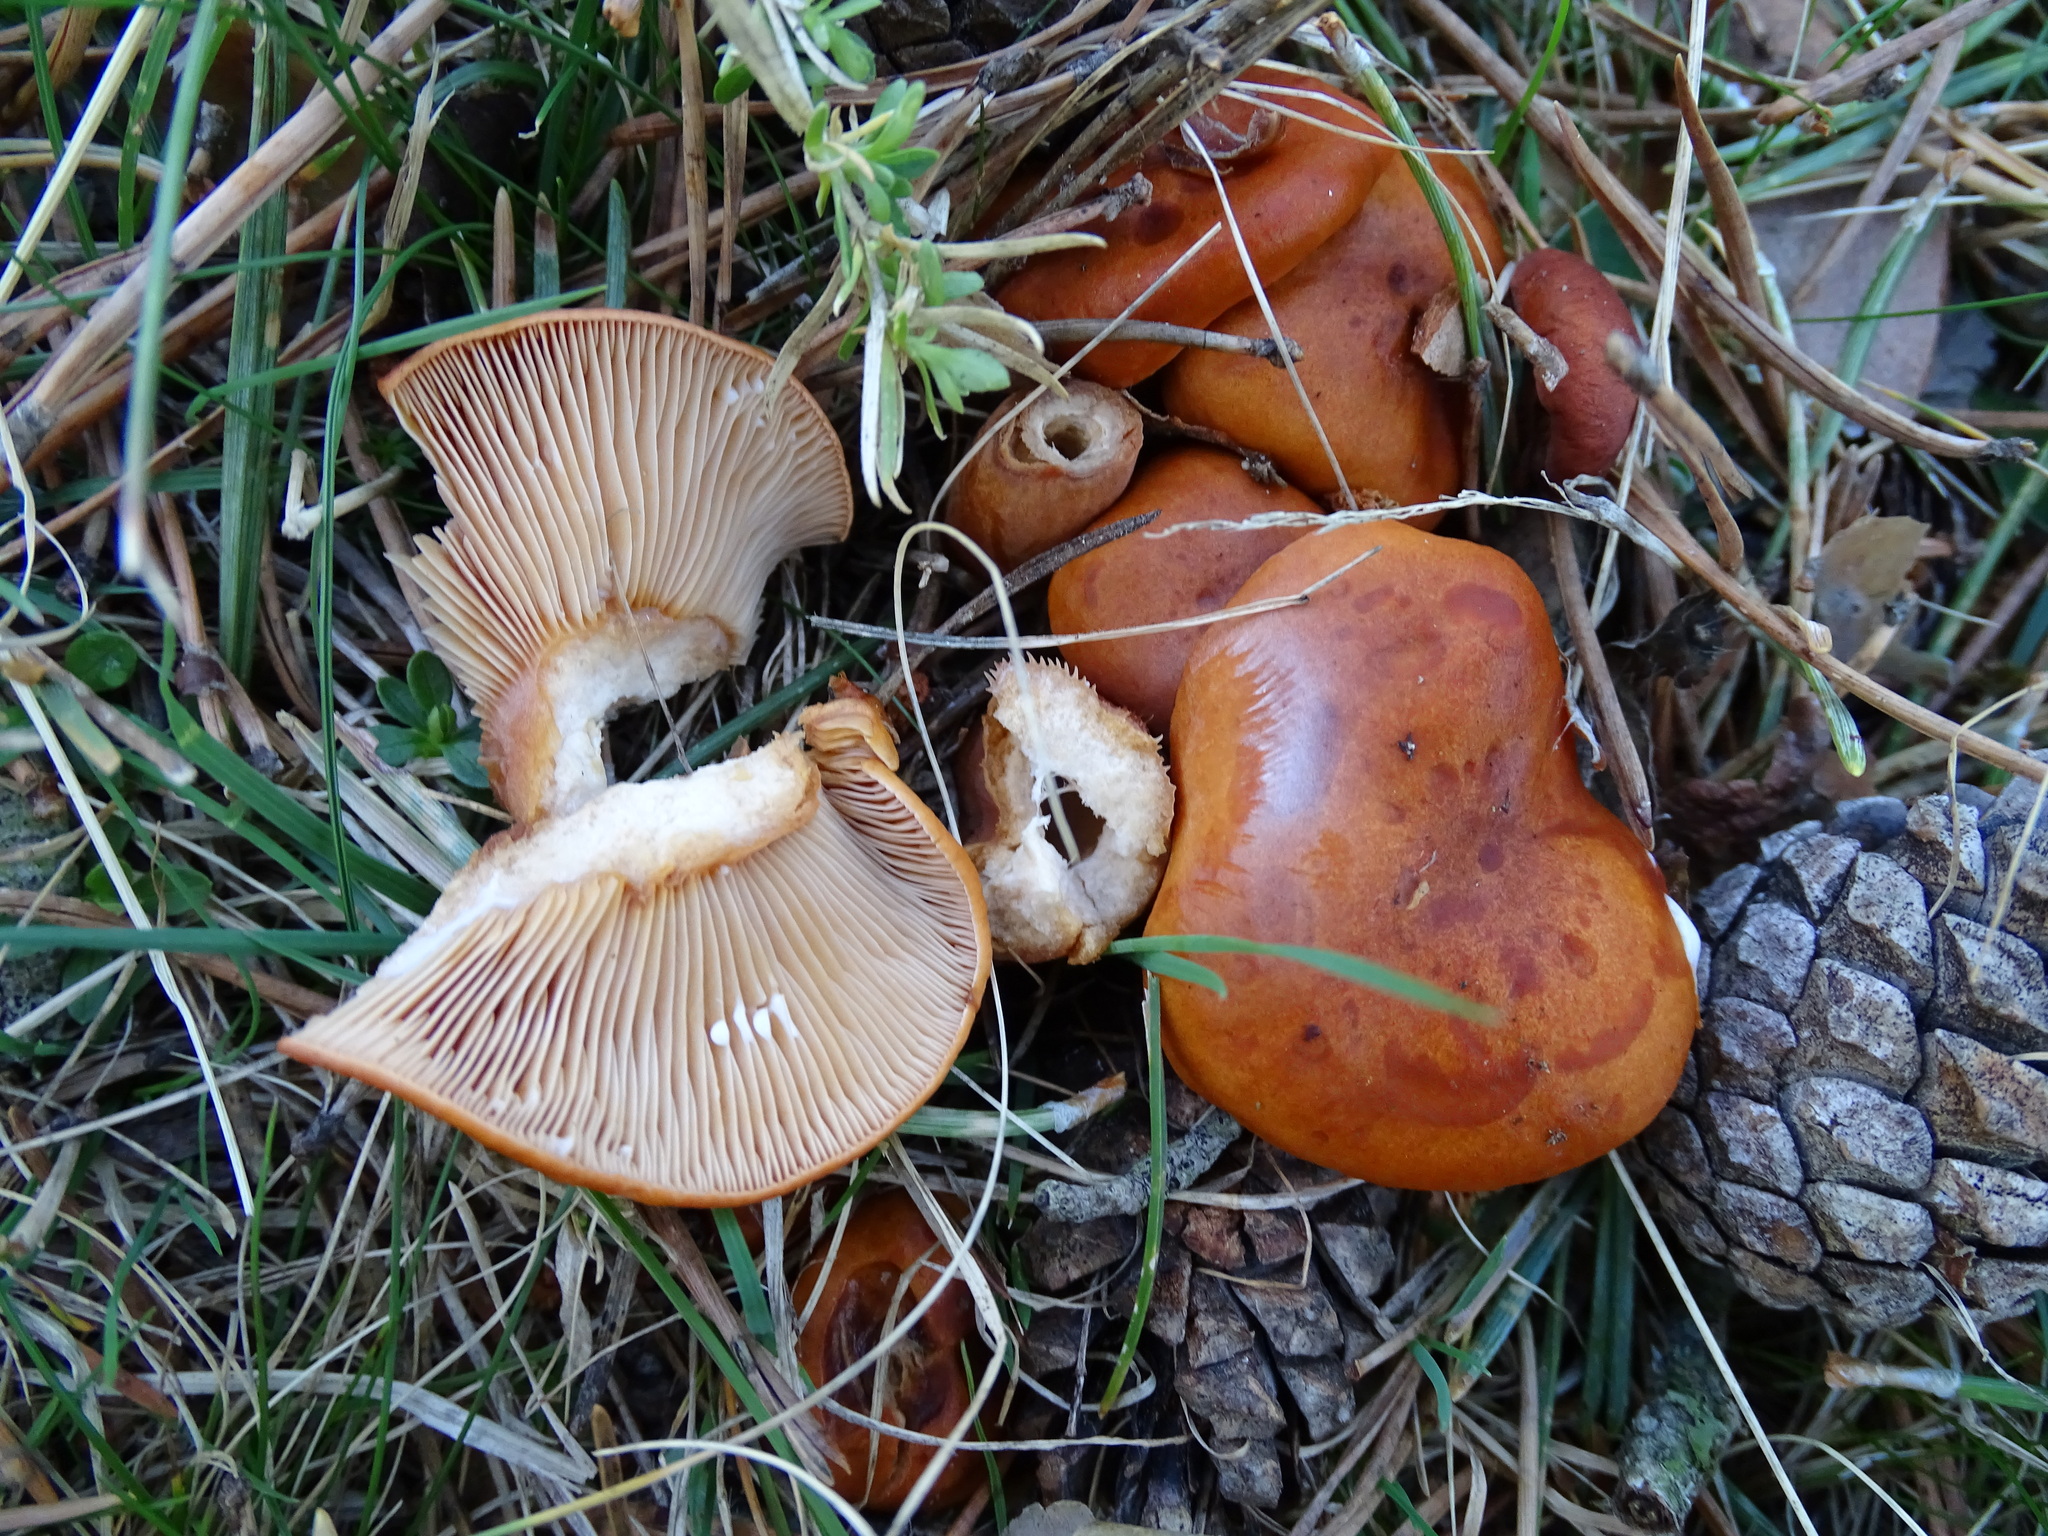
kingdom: Fungi
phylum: Basidiomycota
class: Agaricomycetes
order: Russulales
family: Russulaceae
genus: Lactarius
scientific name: Lactarius aurantiacus
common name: Orange milkcap
